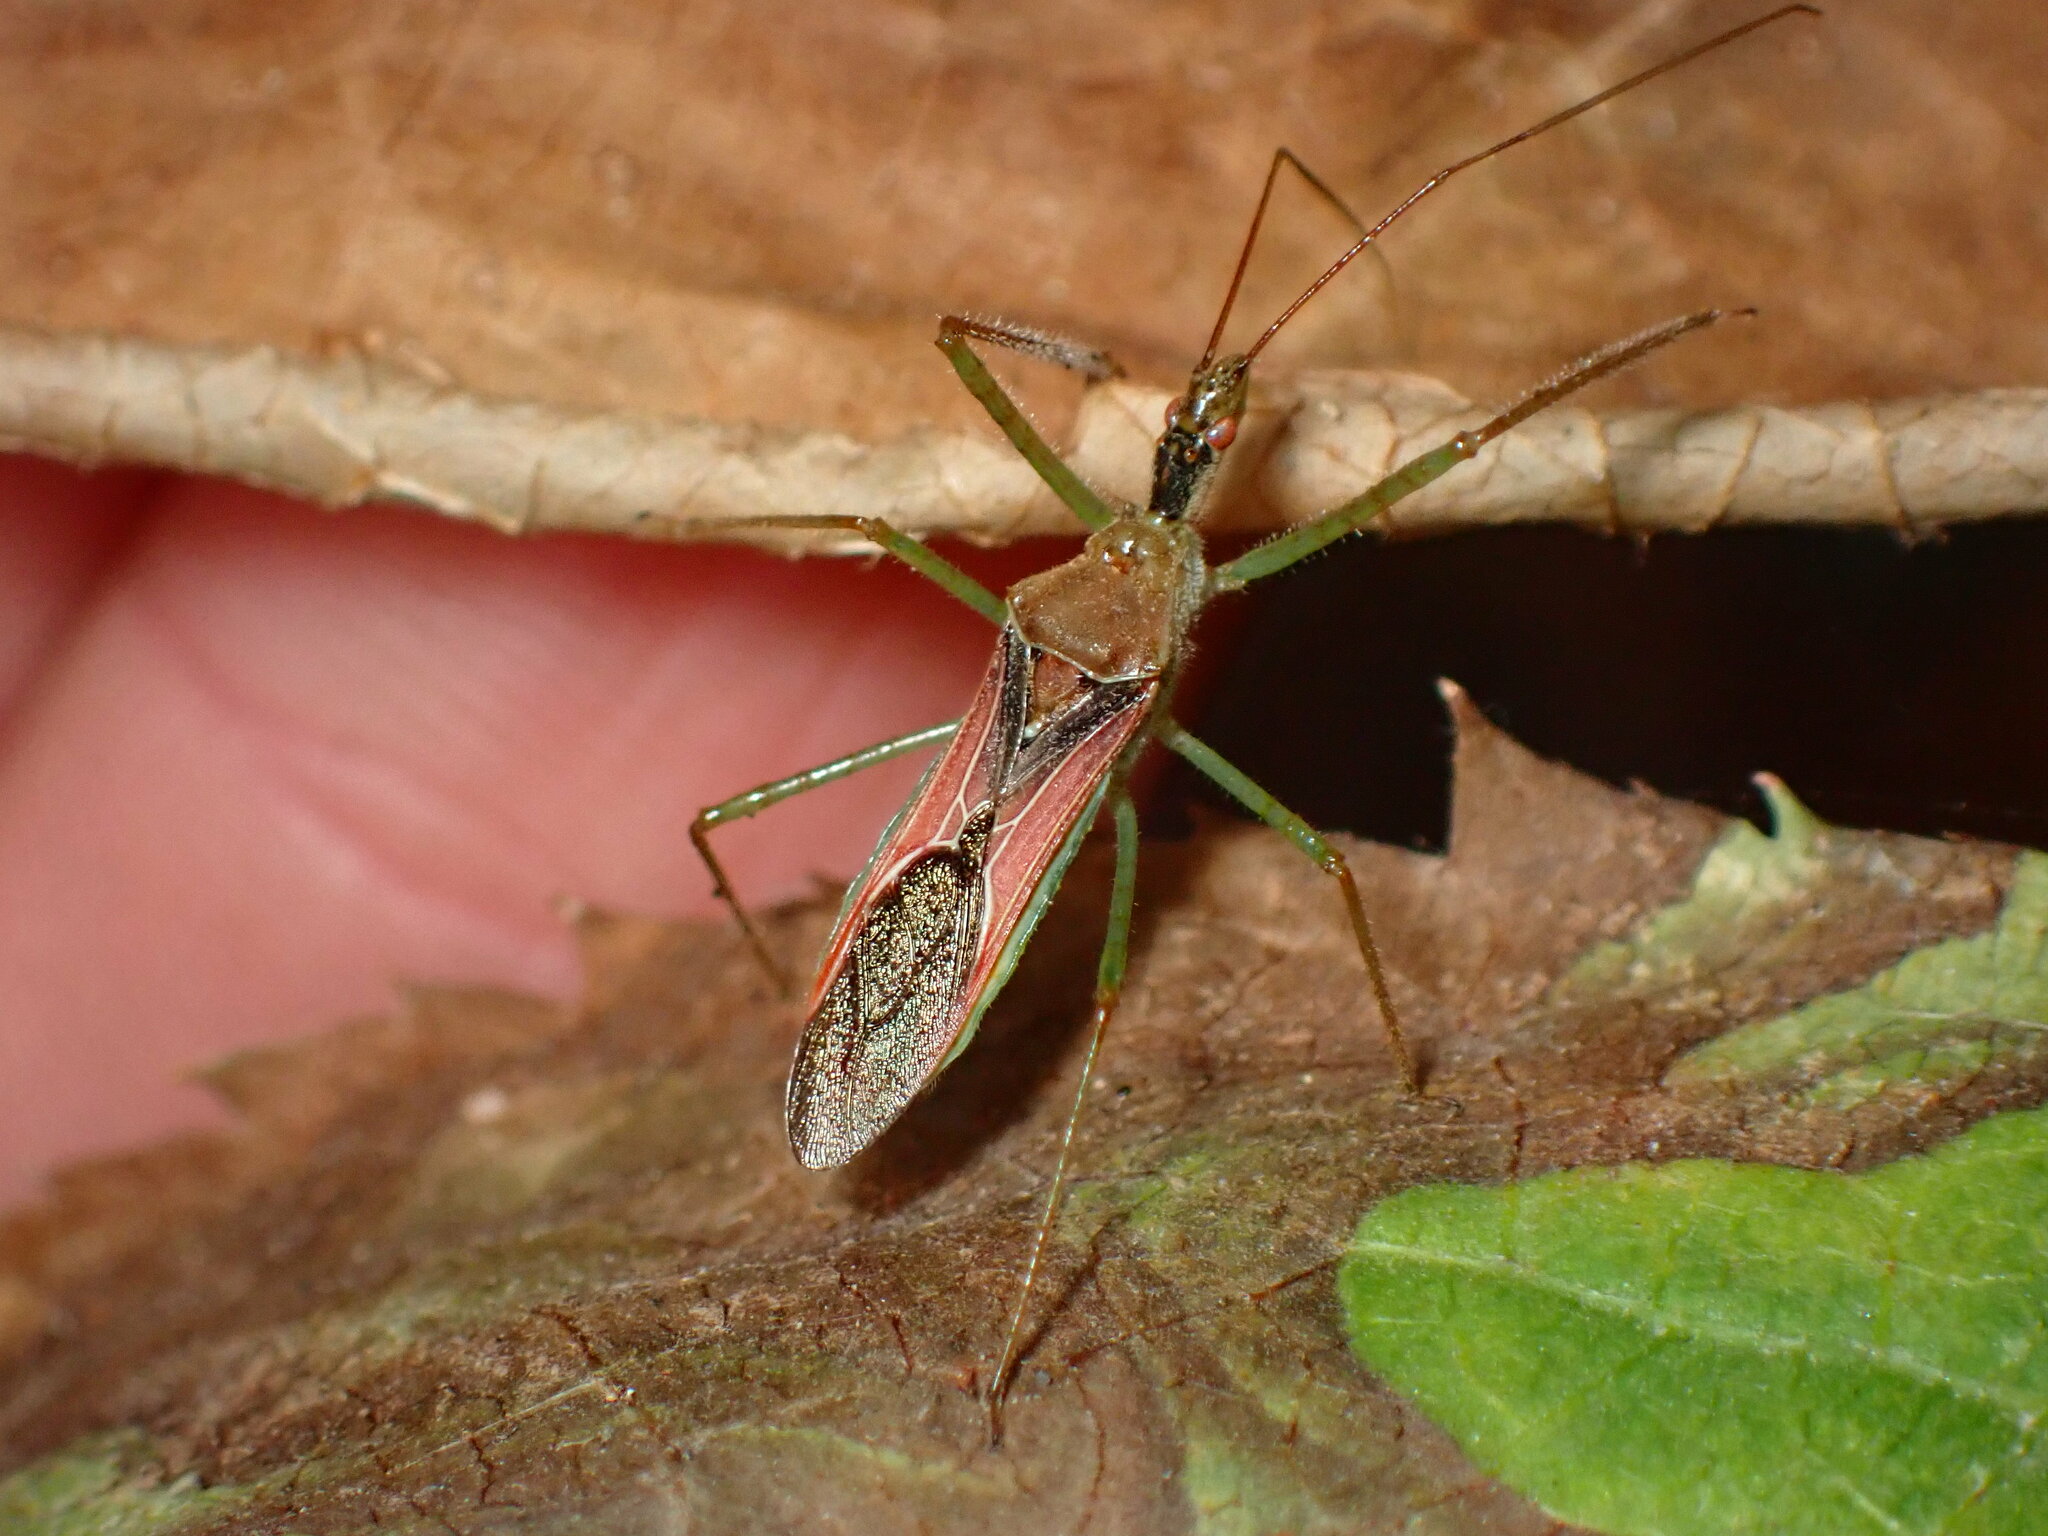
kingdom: Animalia
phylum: Arthropoda
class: Insecta
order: Hemiptera
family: Reduviidae
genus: Zelus
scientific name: Zelus renardii
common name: Assassin bug
